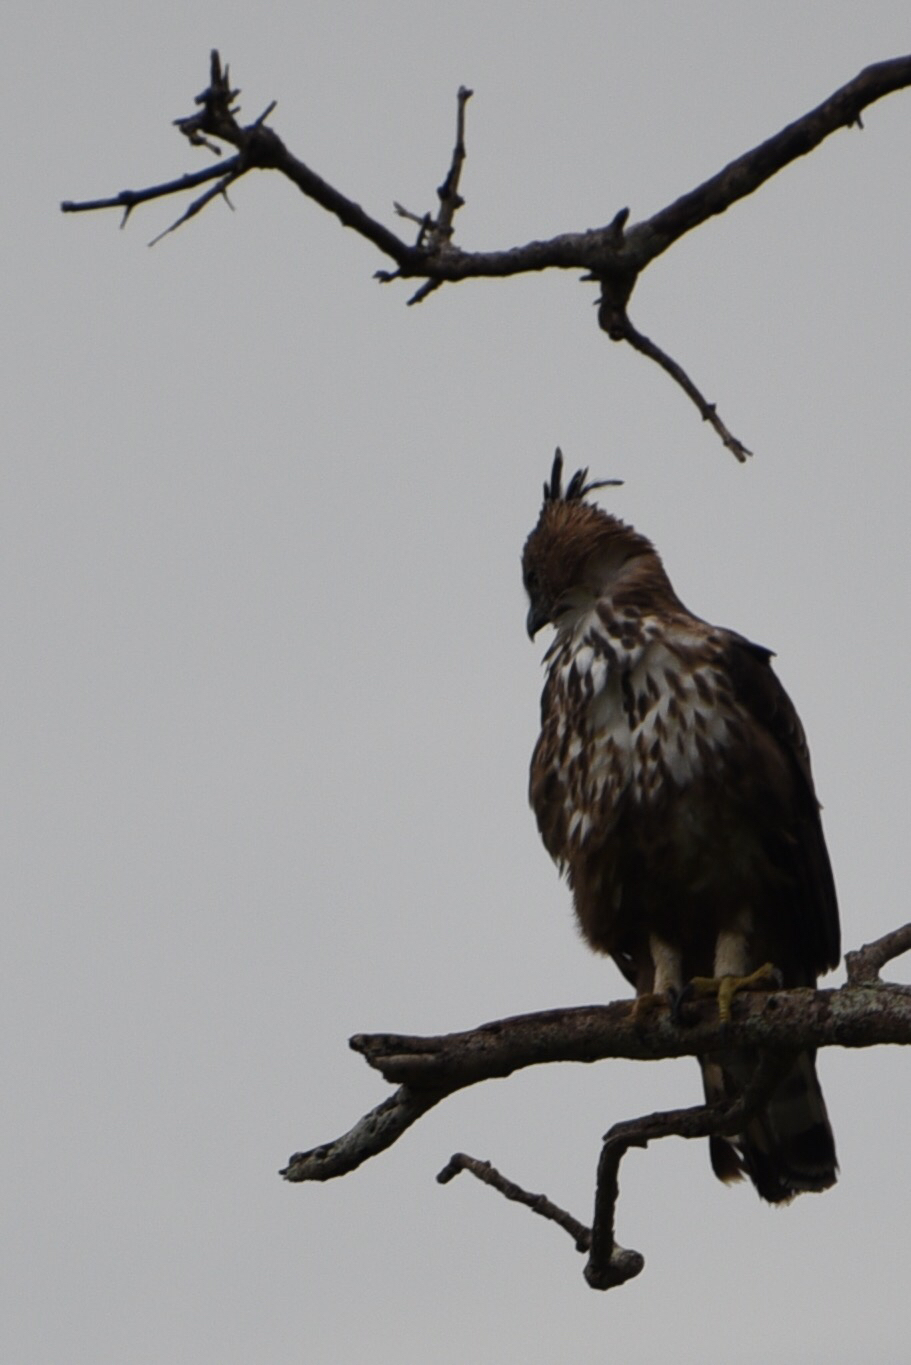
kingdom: Animalia
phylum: Chordata
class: Aves
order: Accipitriformes
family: Accipitridae
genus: Nisaetus
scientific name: Nisaetus cirrhatus
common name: Changeable hawk-eagle
